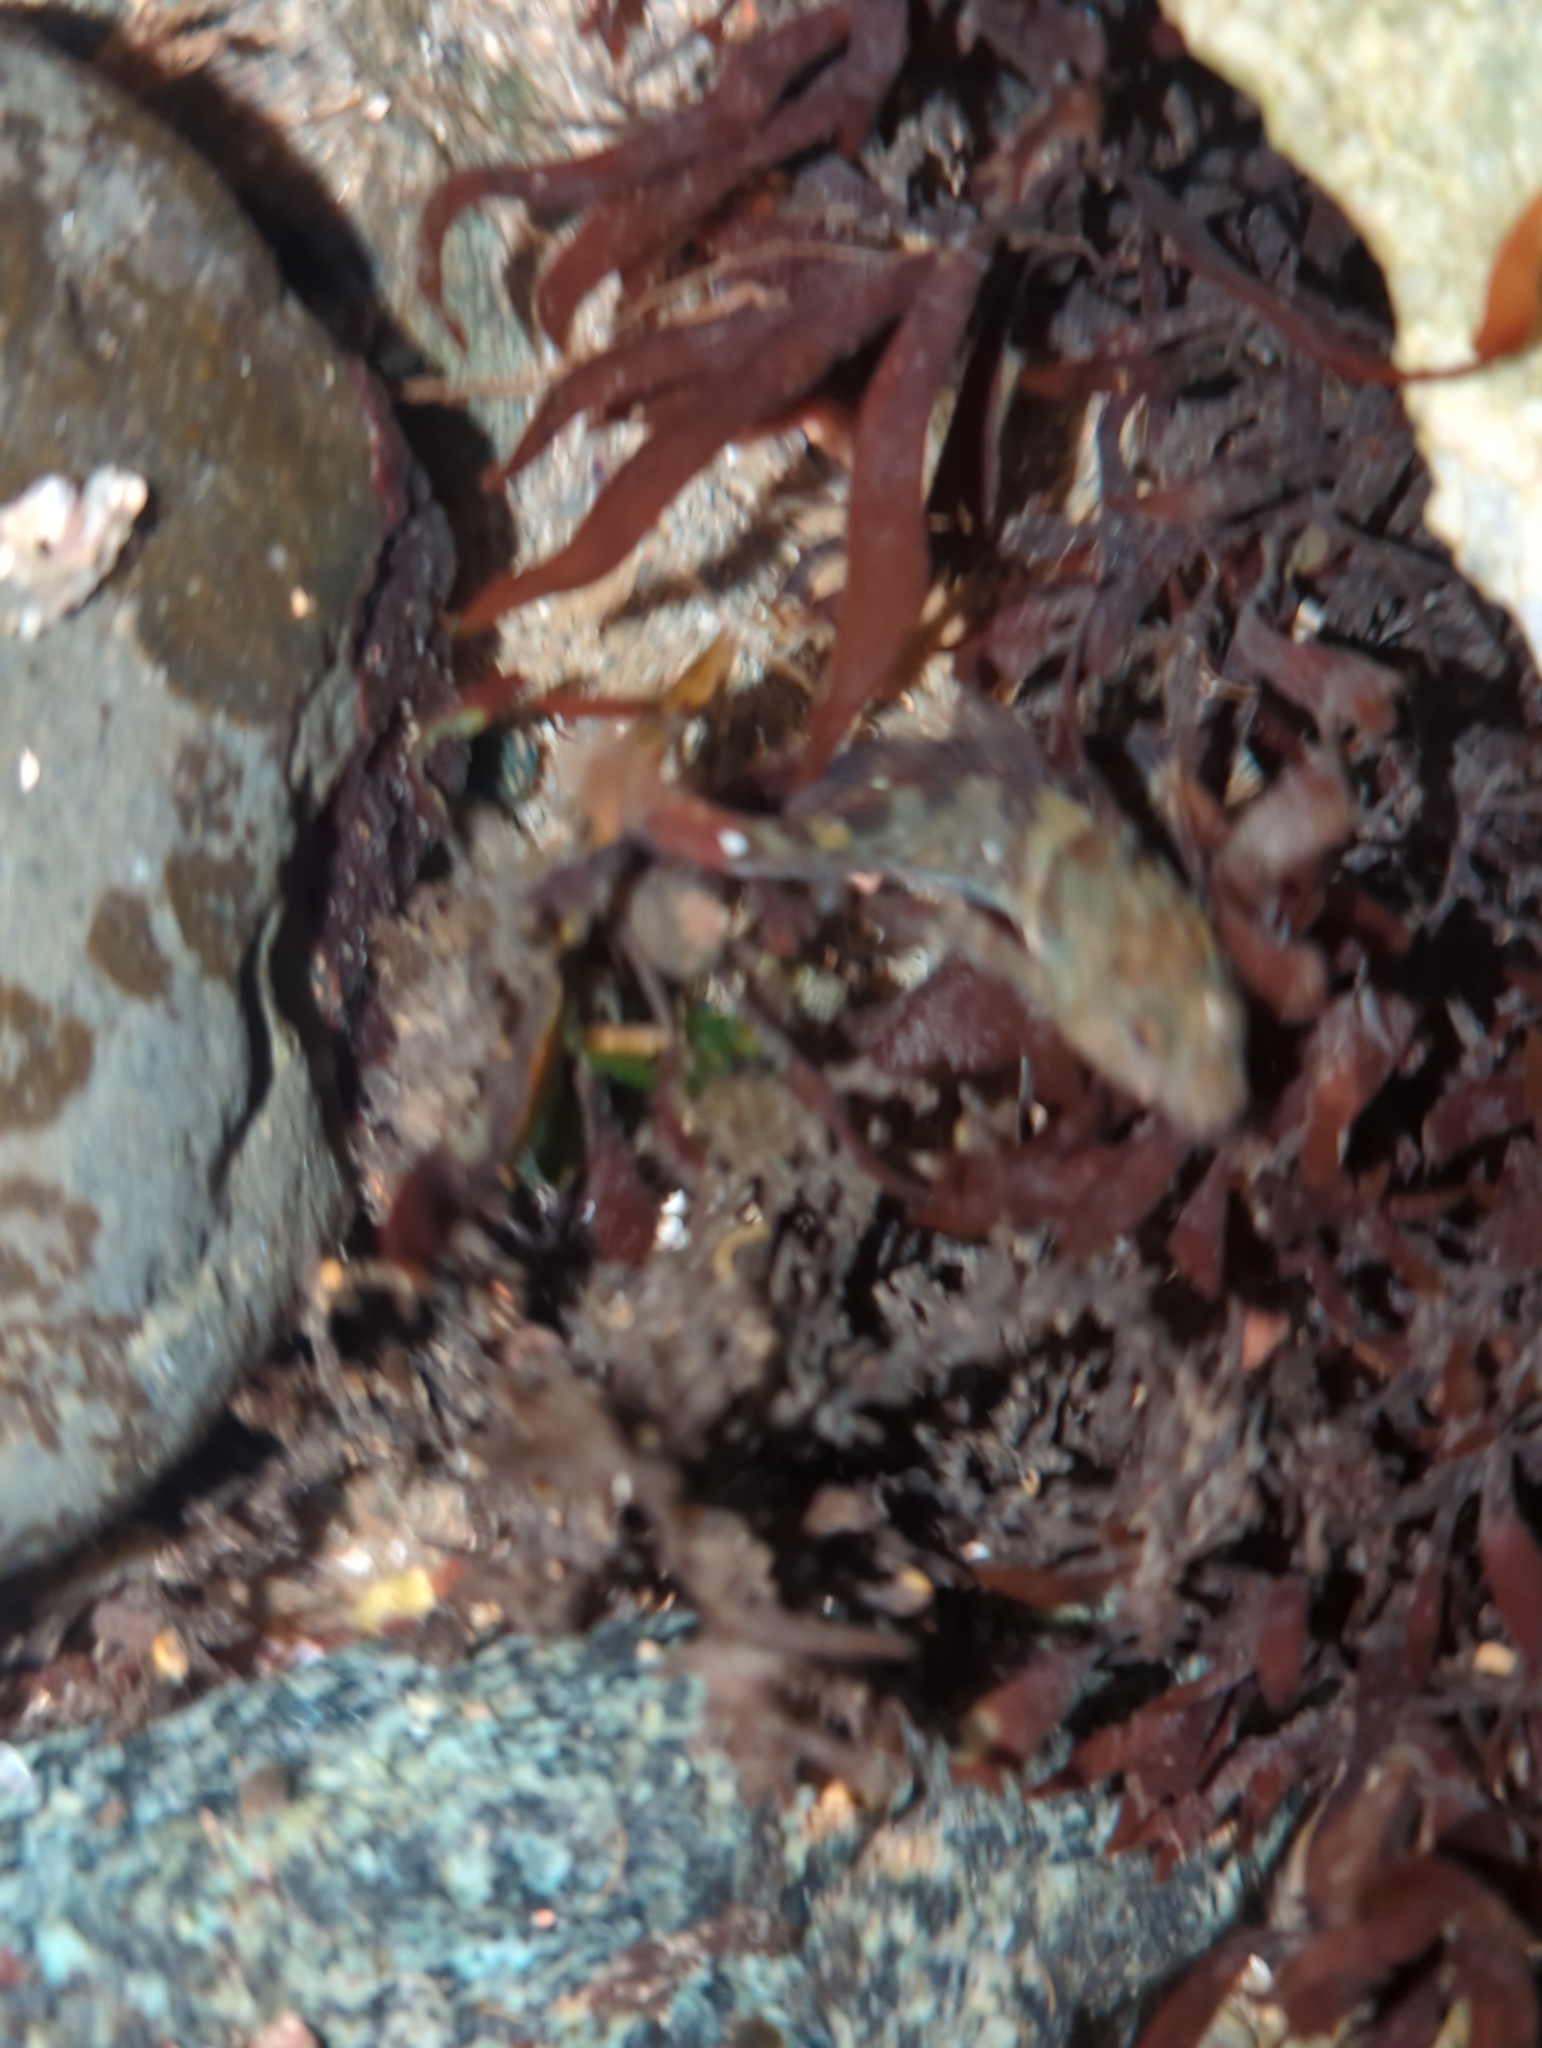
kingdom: Animalia
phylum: Chordata
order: Scorpaeniformes
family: Cottidae
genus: Oligocottus
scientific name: Oligocottus maculosus
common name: Tidepool sculpin
